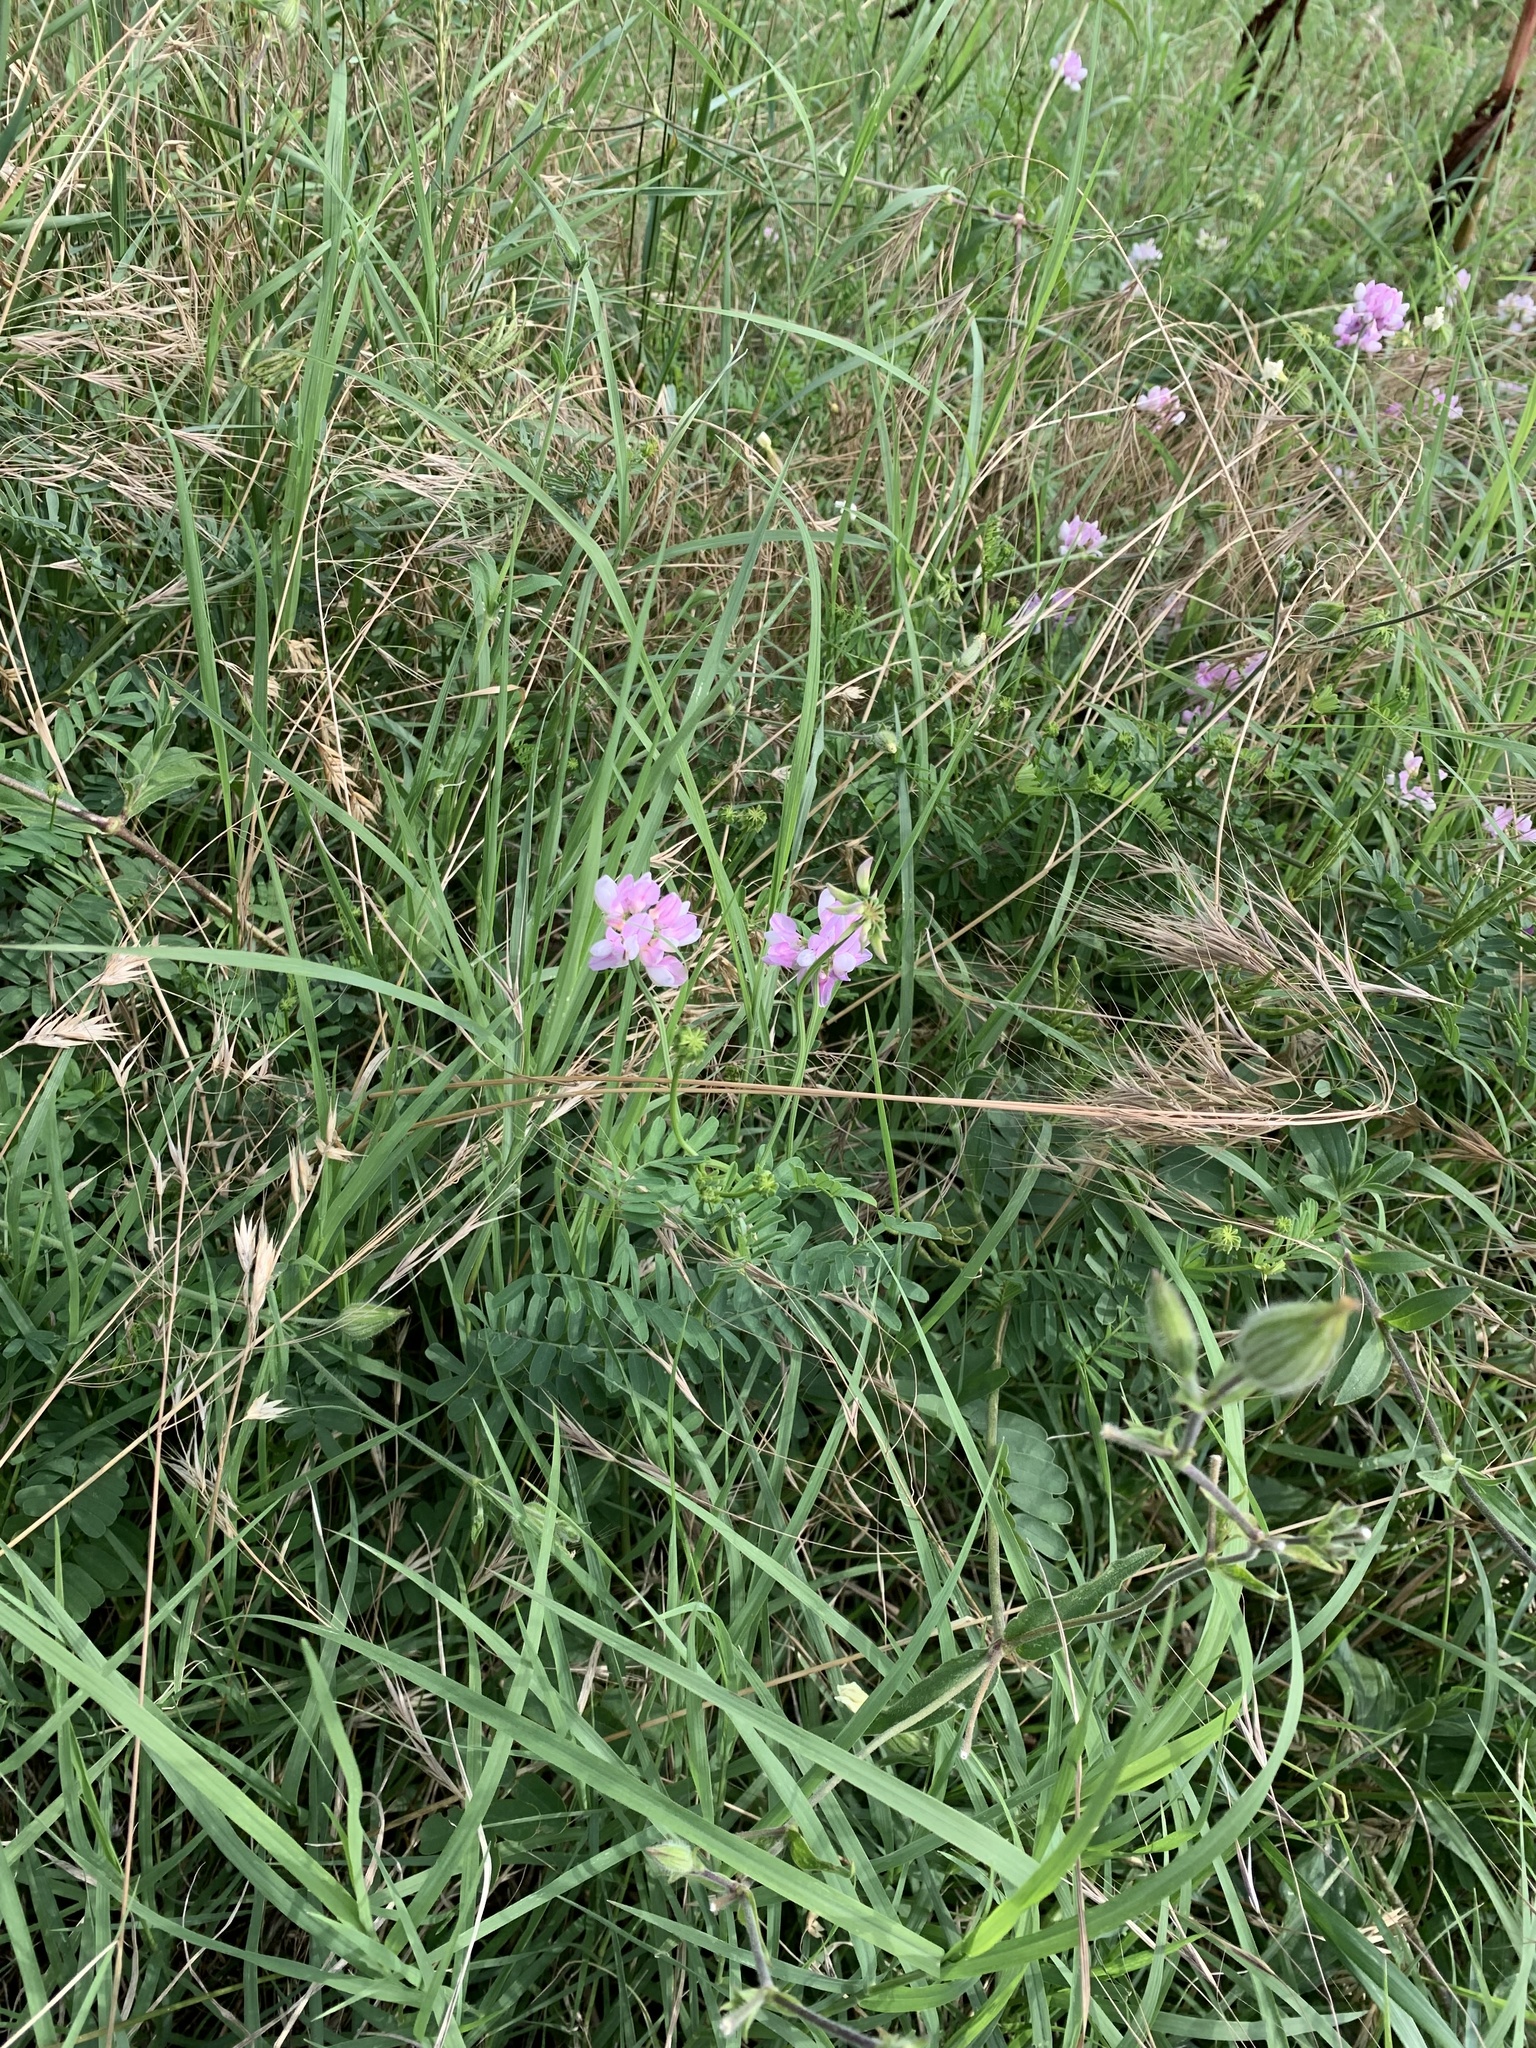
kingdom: Plantae
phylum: Tracheophyta
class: Magnoliopsida
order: Fabales
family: Fabaceae
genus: Coronilla
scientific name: Coronilla varia
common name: Crownvetch
